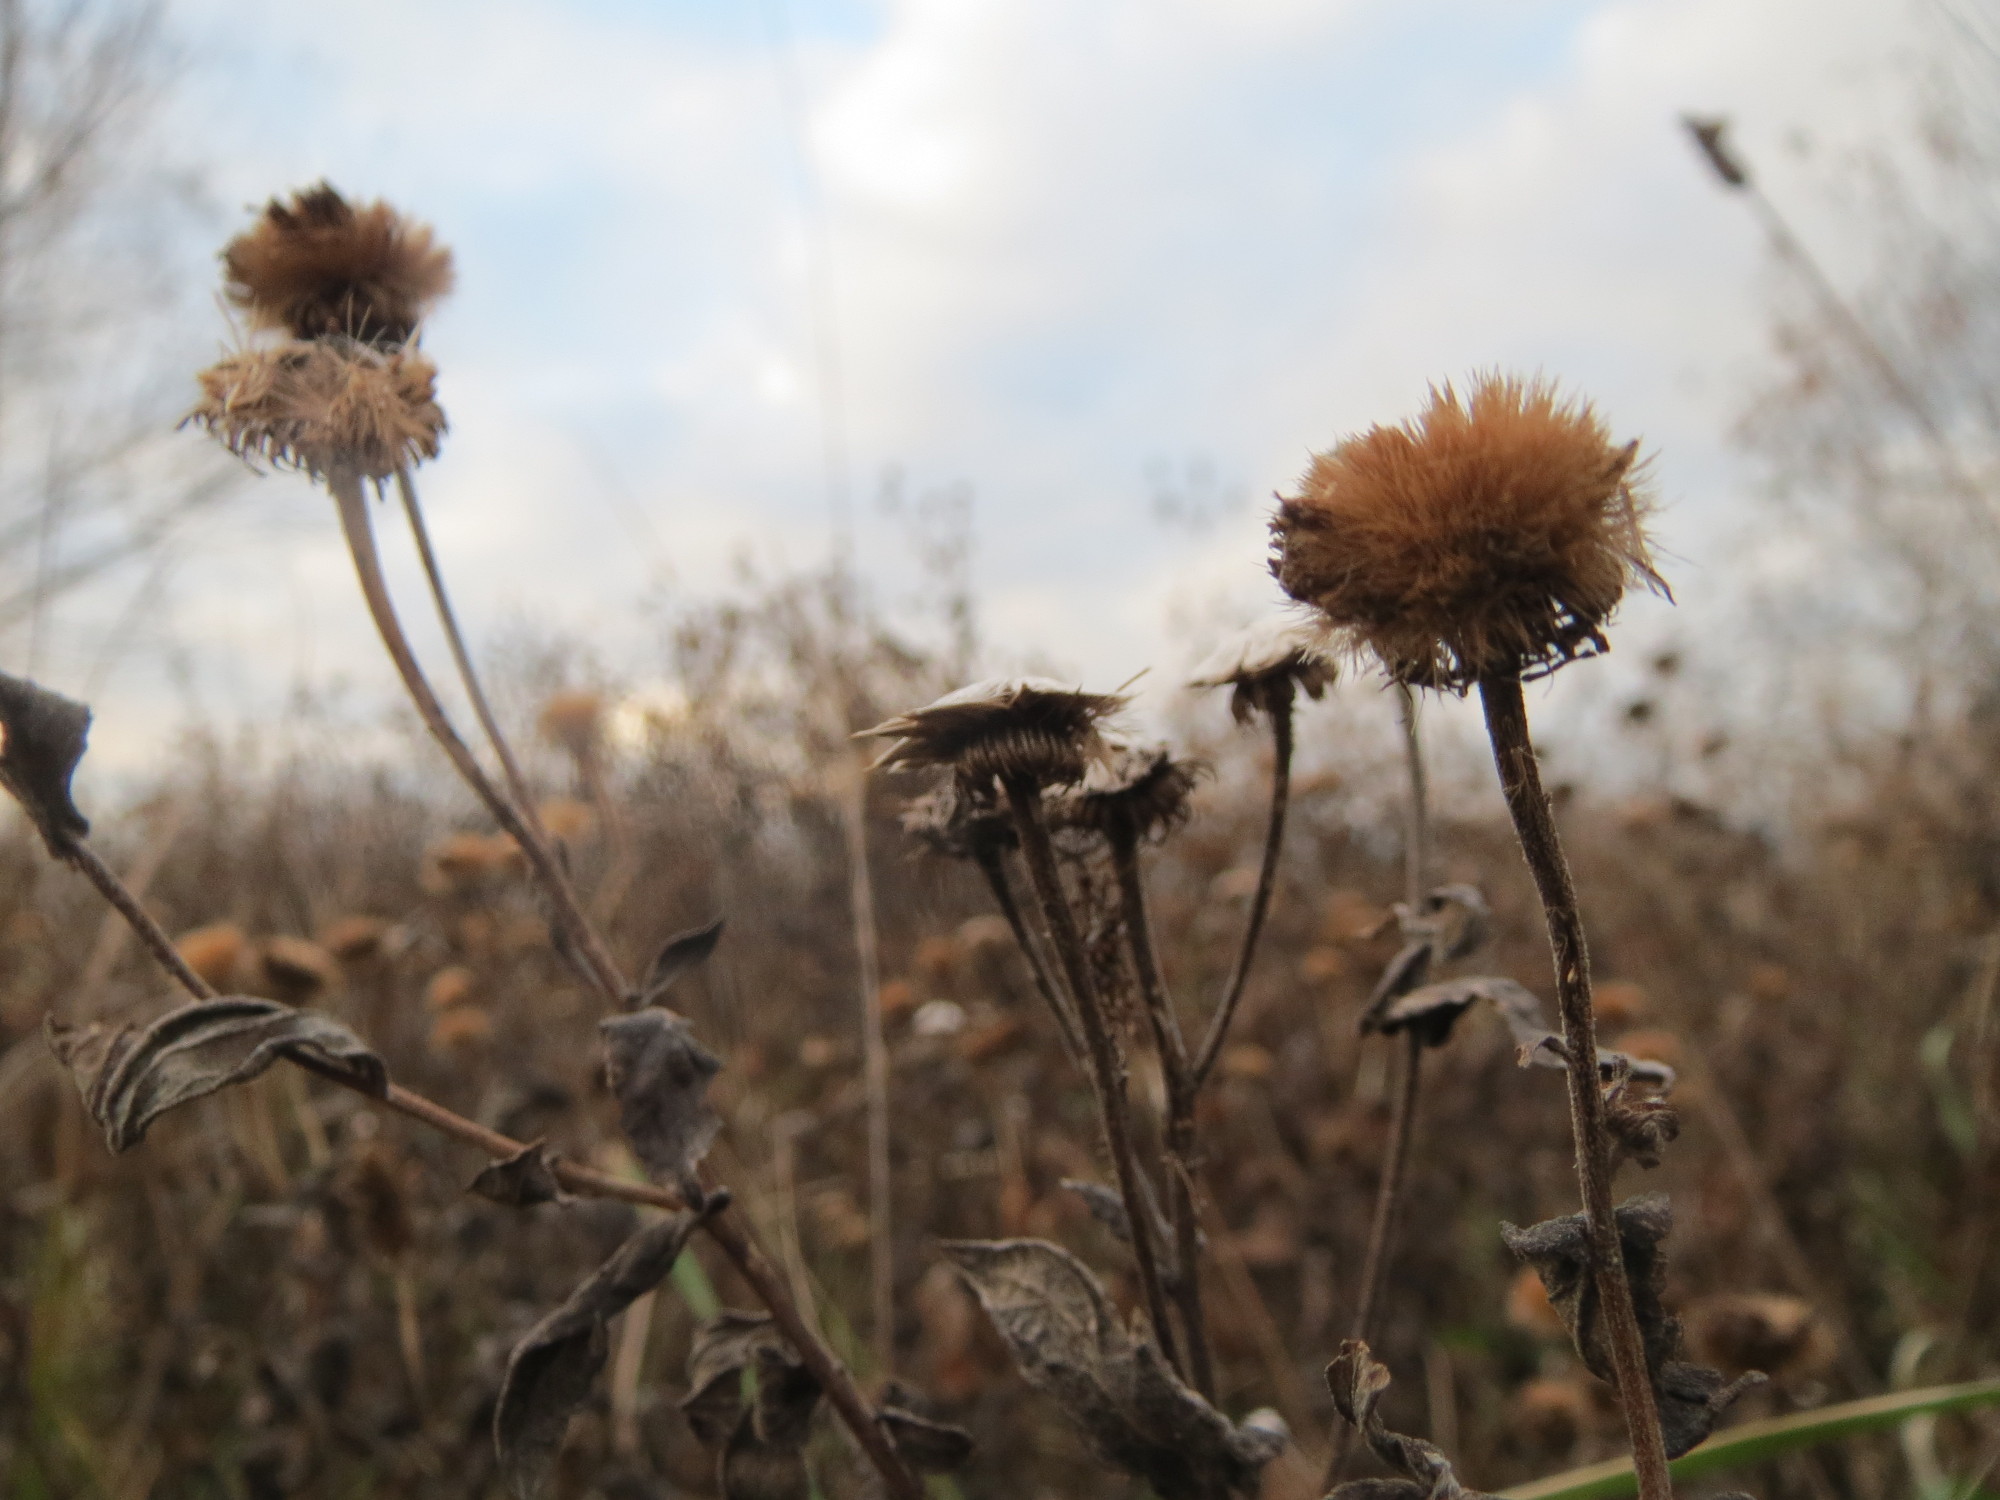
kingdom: Plantae
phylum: Tracheophyta
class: Magnoliopsida
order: Asterales
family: Asteraceae
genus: Pulicaria
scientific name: Pulicaria dysenterica
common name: Common fleabane
